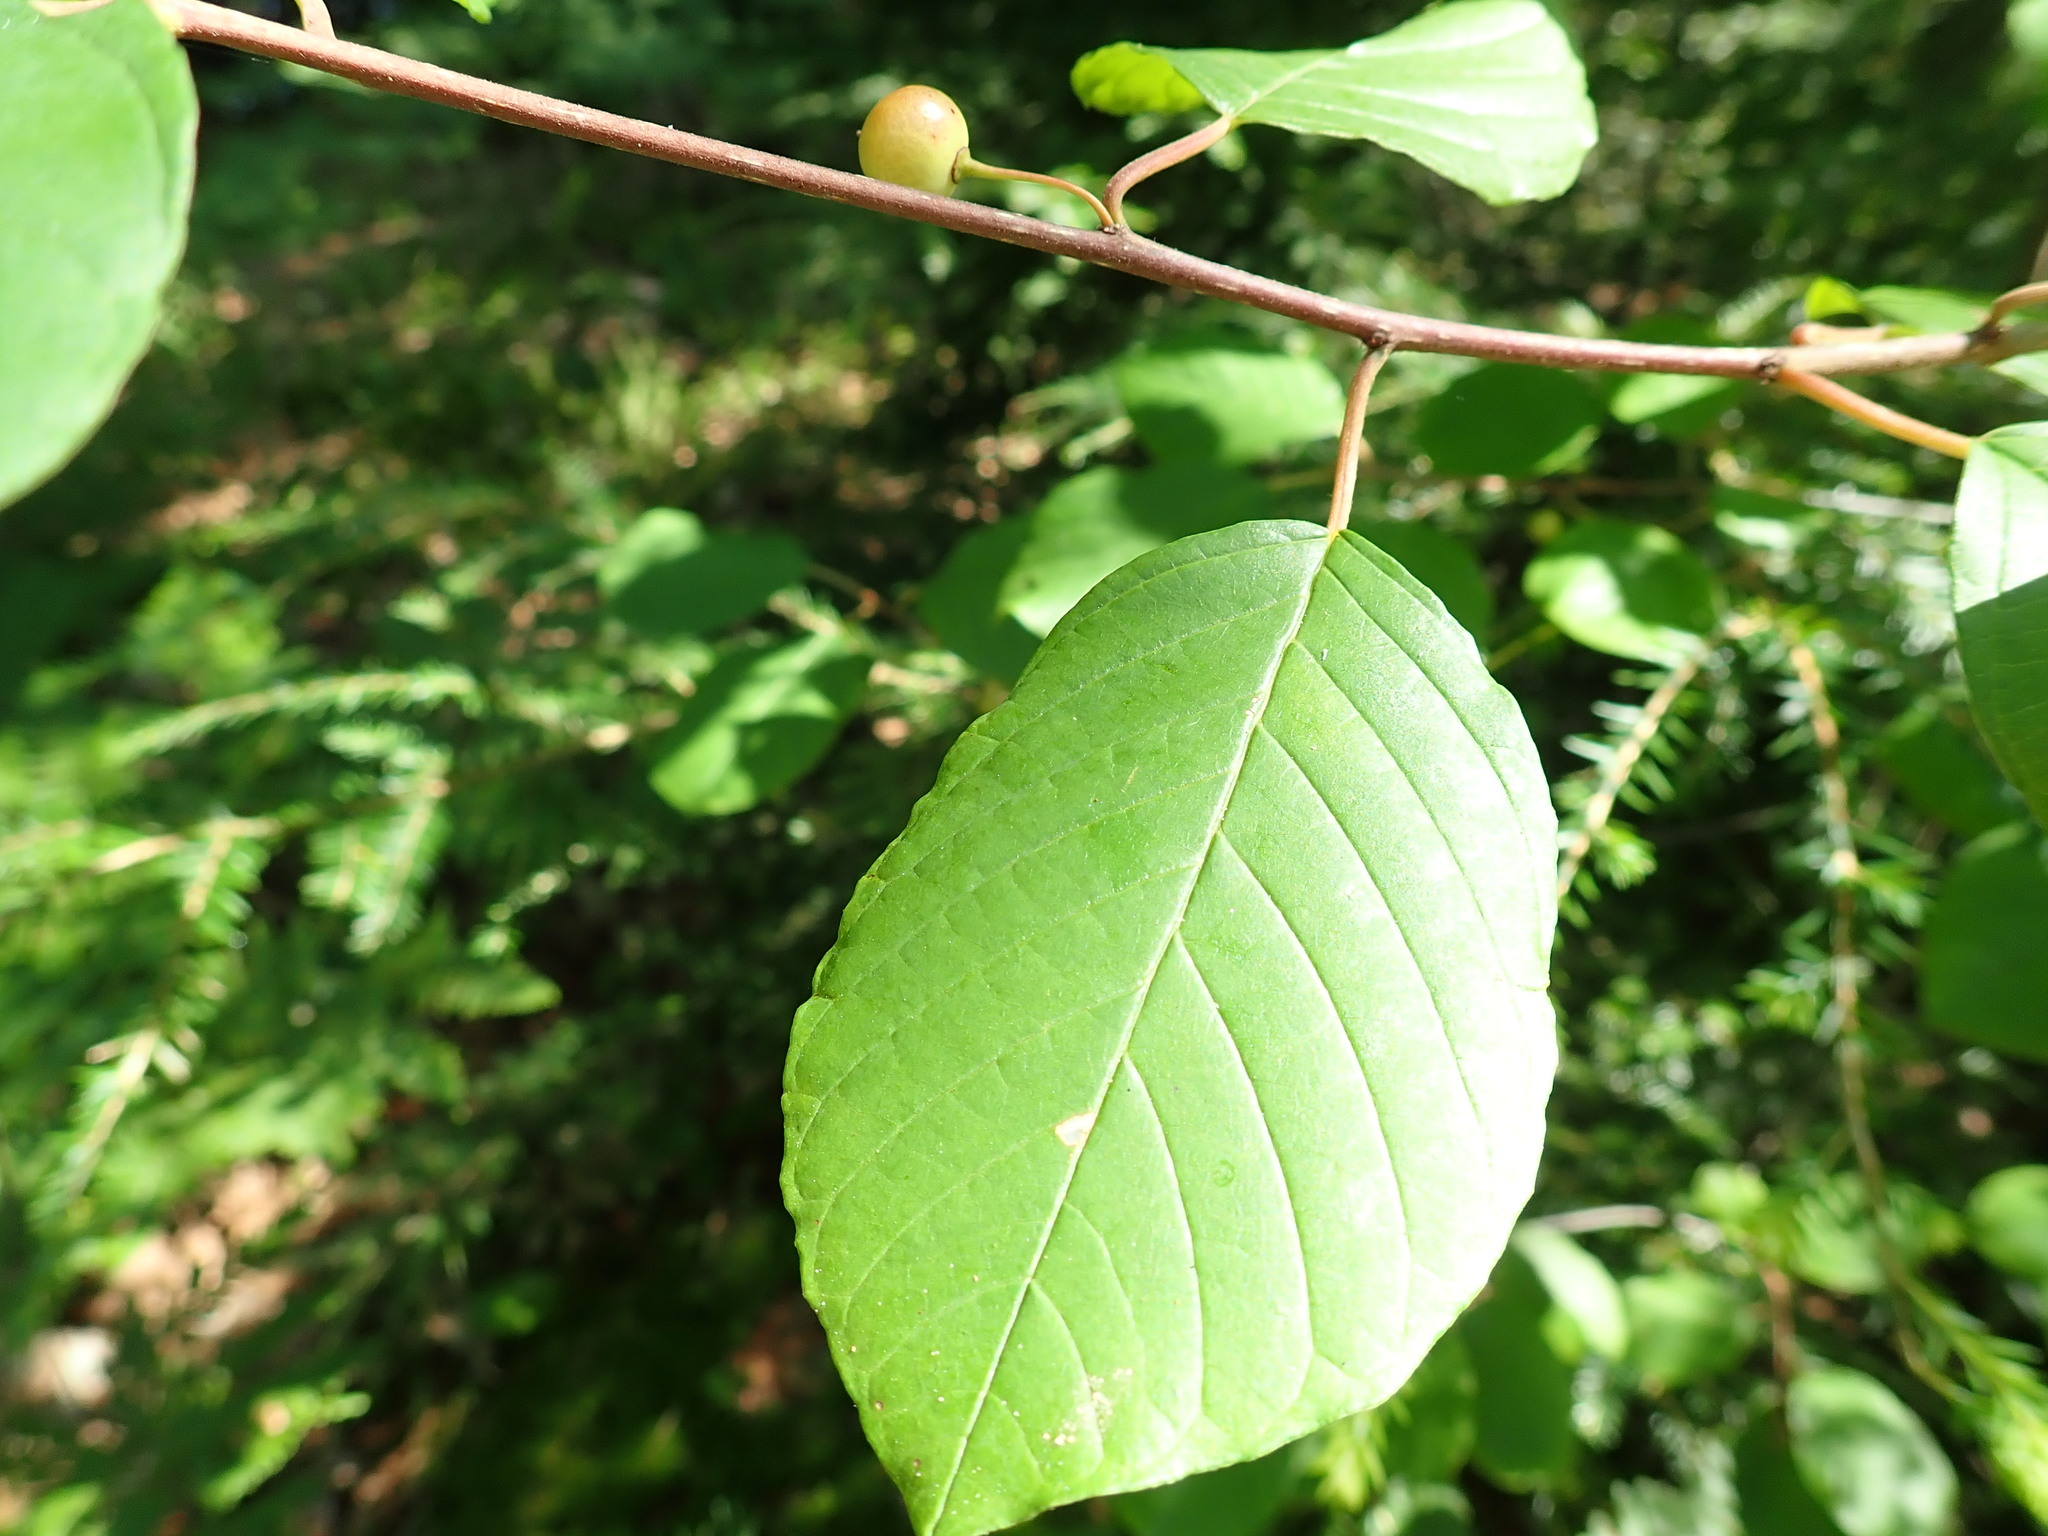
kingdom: Plantae
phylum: Tracheophyta
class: Magnoliopsida
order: Rosales
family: Rhamnaceae
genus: Frangula
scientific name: Frangula alnus
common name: Alder buckthorn
